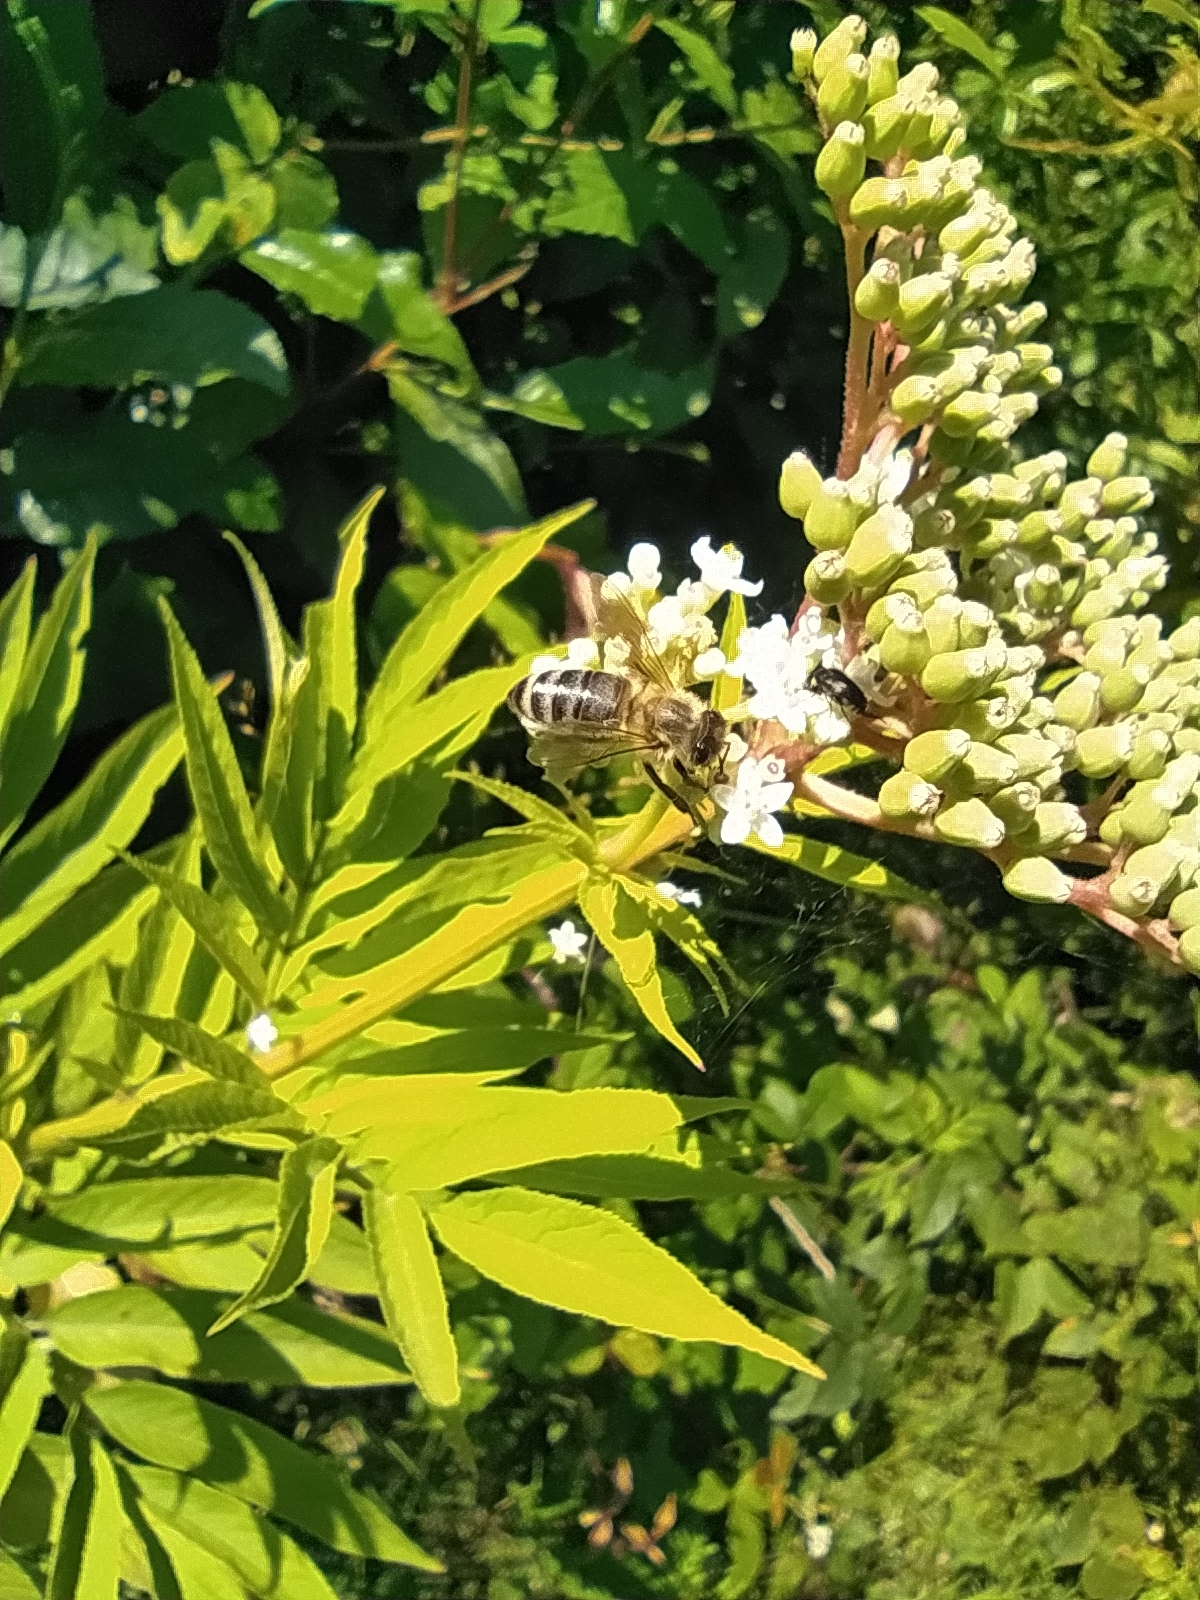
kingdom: Animalia
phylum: Arthropoda
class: Insecta
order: Hymenoptera
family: Apidae
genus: Apis
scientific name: Apis mellifera
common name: Honey bee
